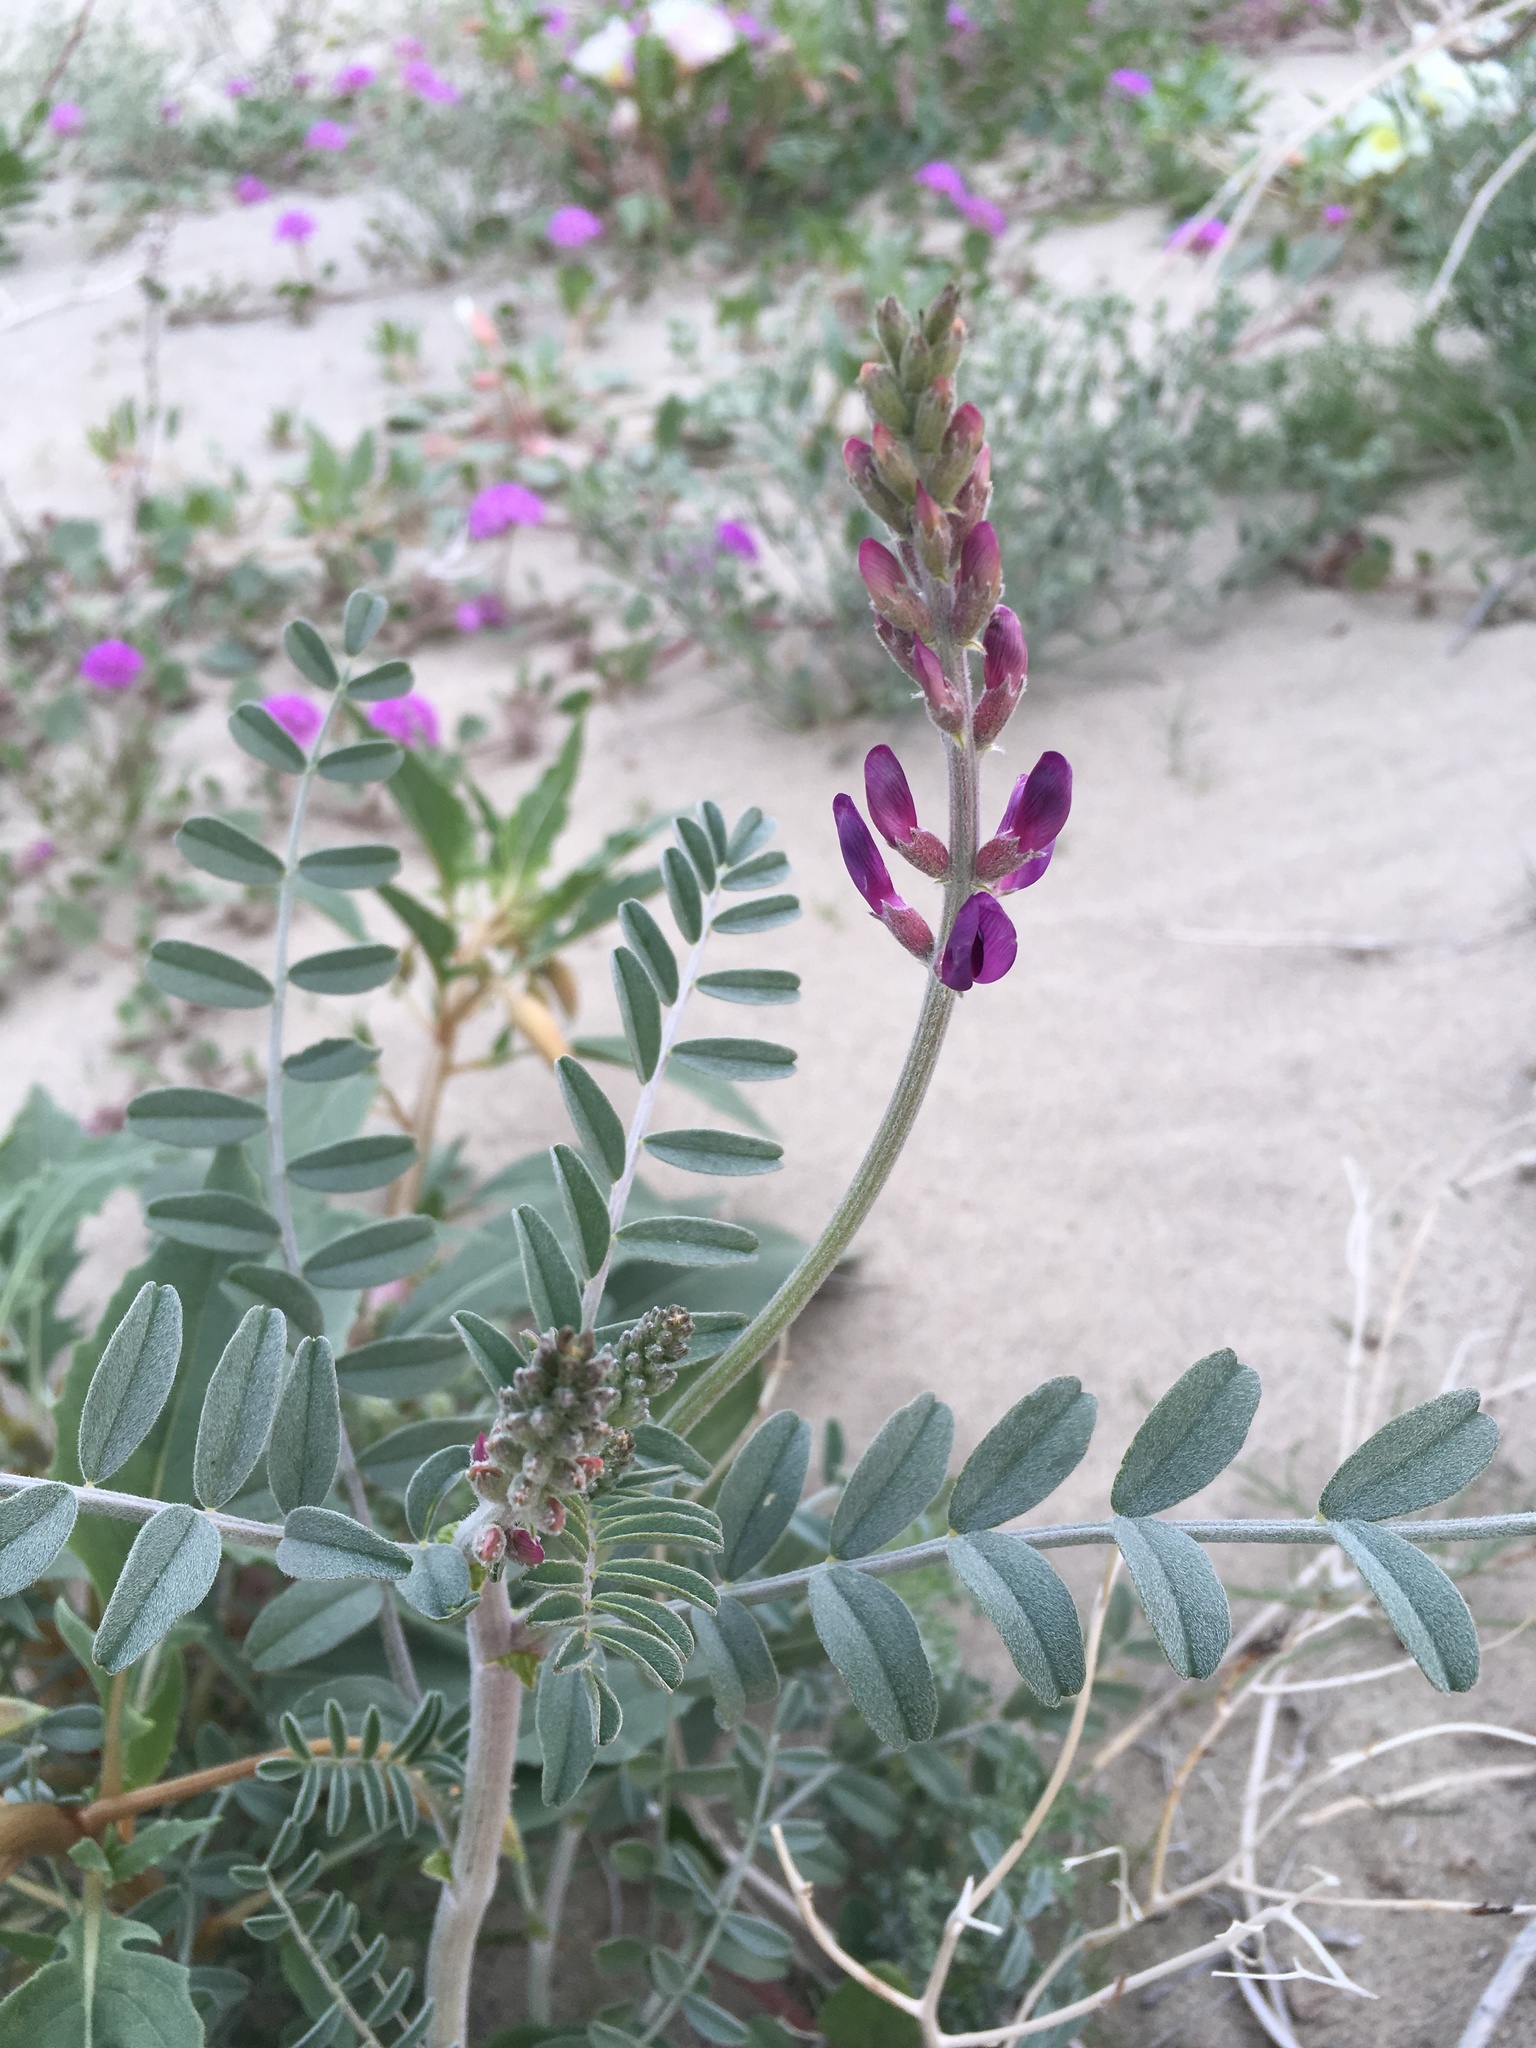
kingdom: Plantae
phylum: Tracheophyta
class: Magnoliopsida
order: Fabales
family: Fabaceae
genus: Astragalus
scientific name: Astragalus lentiginosus
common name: Freckled milkvetch
